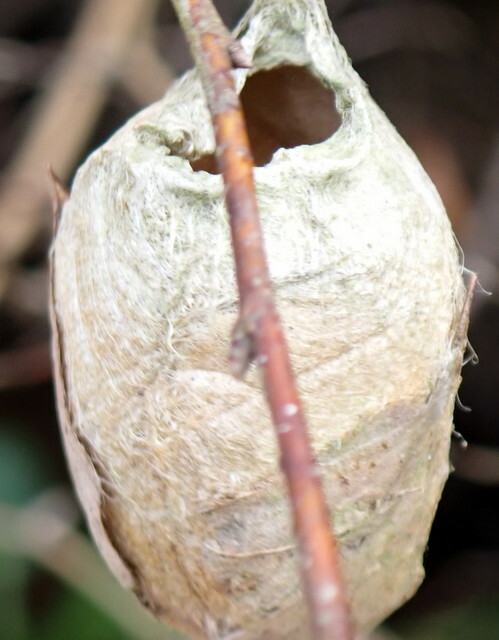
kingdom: Animalia
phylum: Arthropoda
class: Insecta
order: Lepidoptera
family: Saturniidae
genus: Antheraea
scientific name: Antheraea polyphemus
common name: Polyphemus moth
